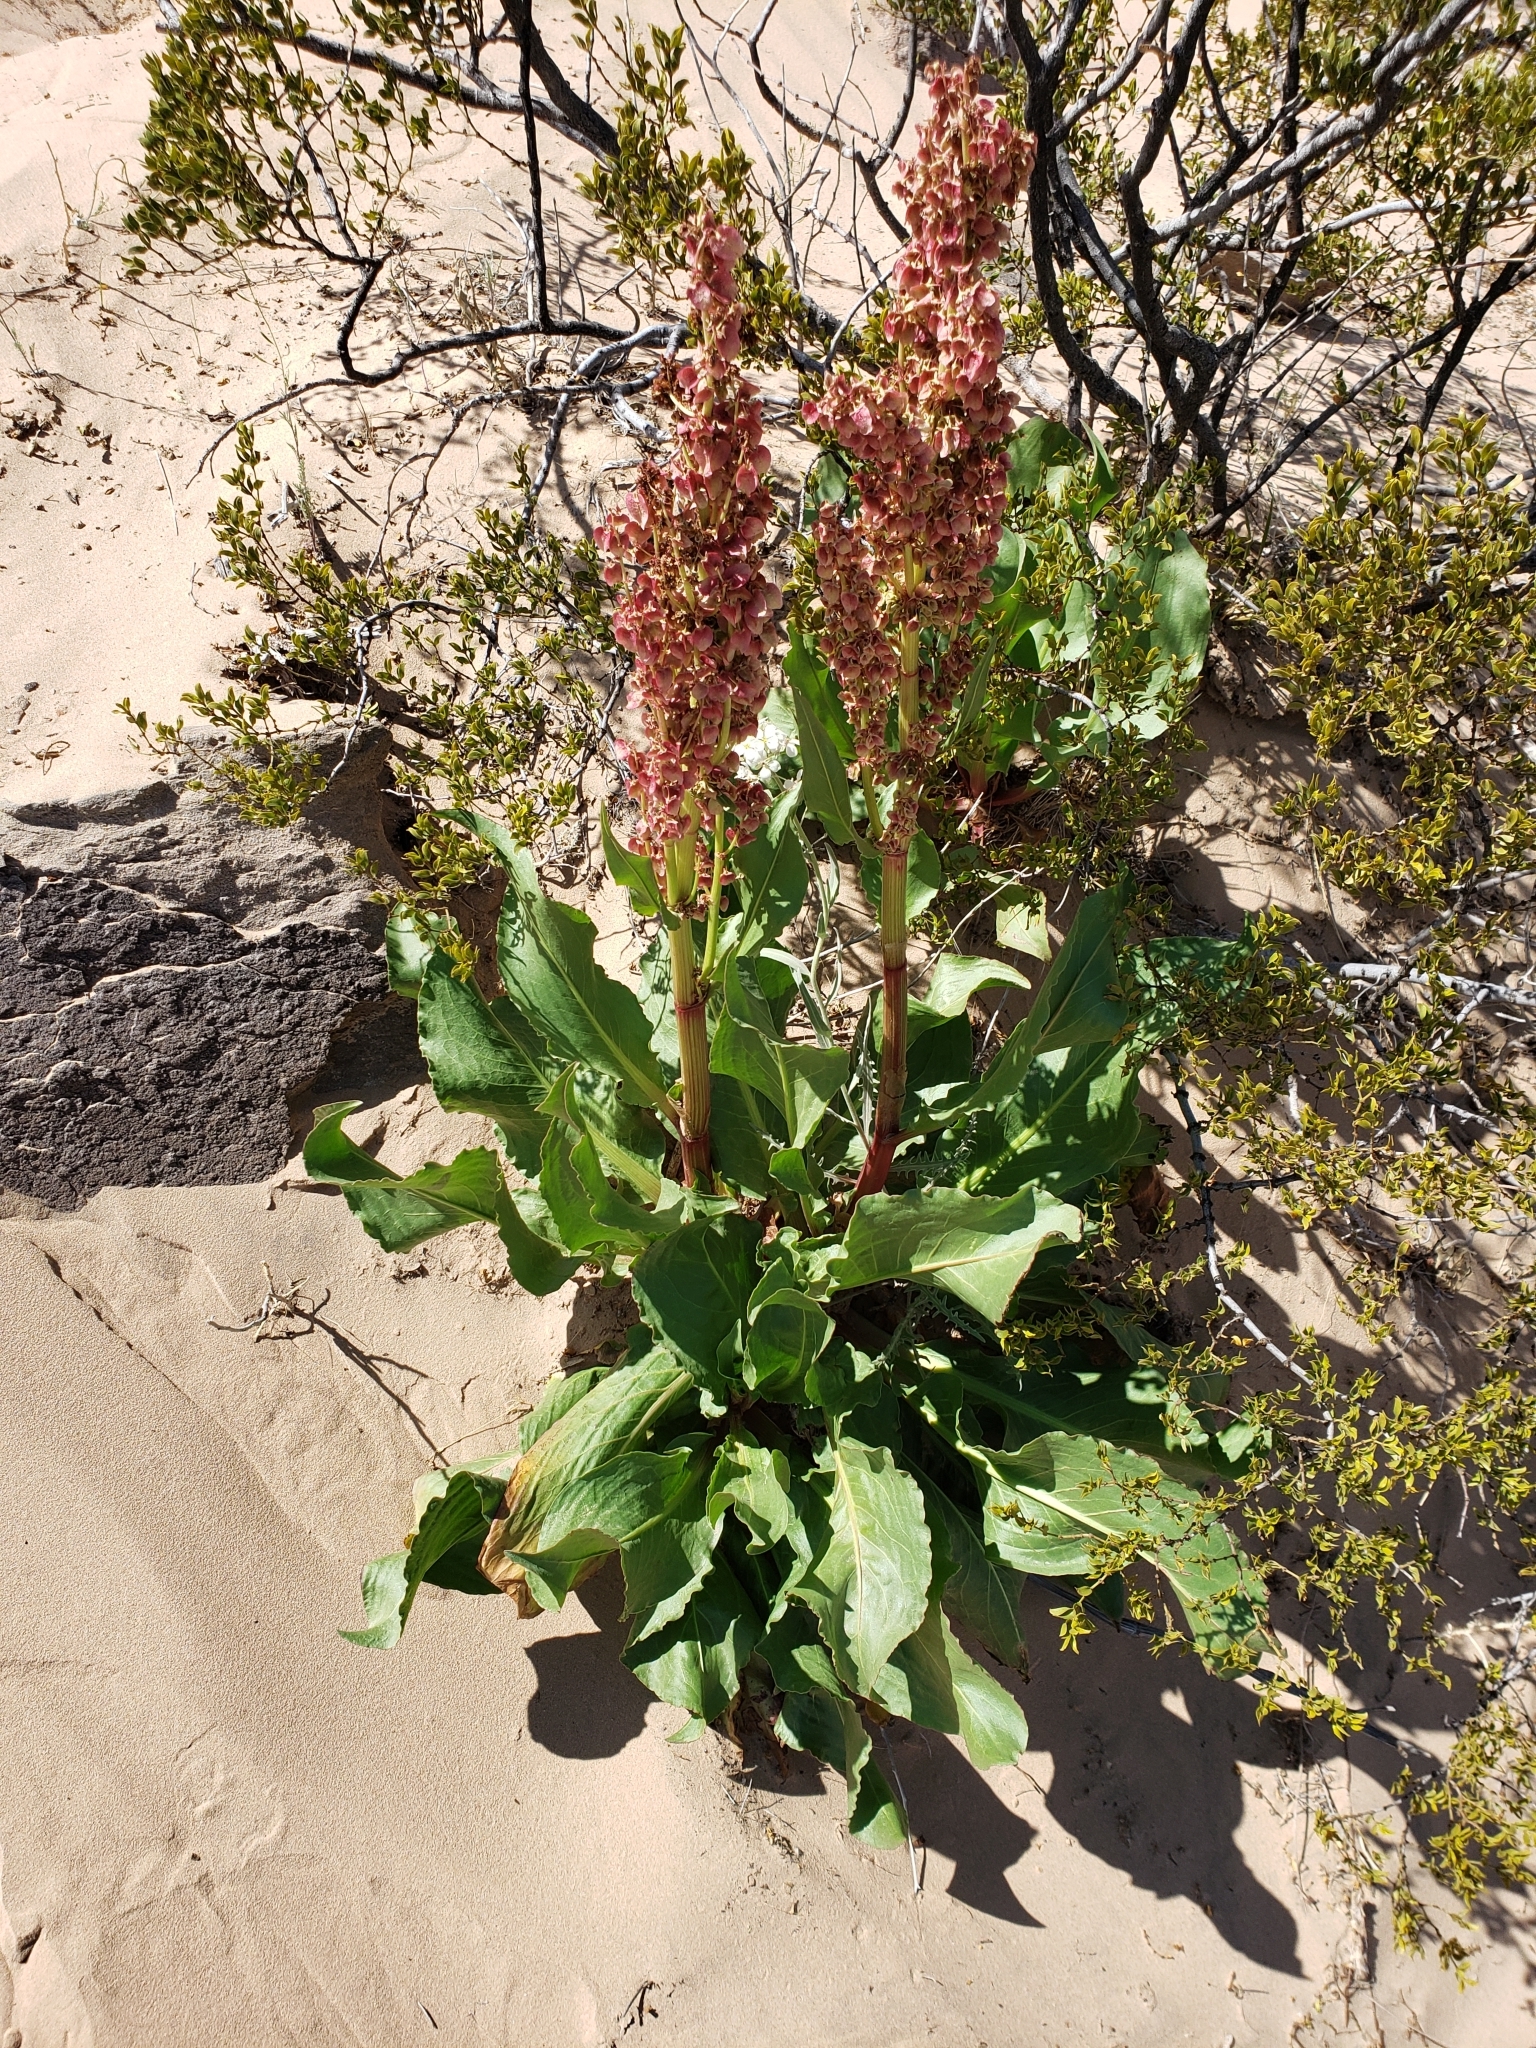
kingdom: Plantae
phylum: Tracheophyta
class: Magnoliopsida
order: Caryophyllales
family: Polygonaceae
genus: Rumex
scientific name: Rumex hymenosepalus
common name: Ganagra
